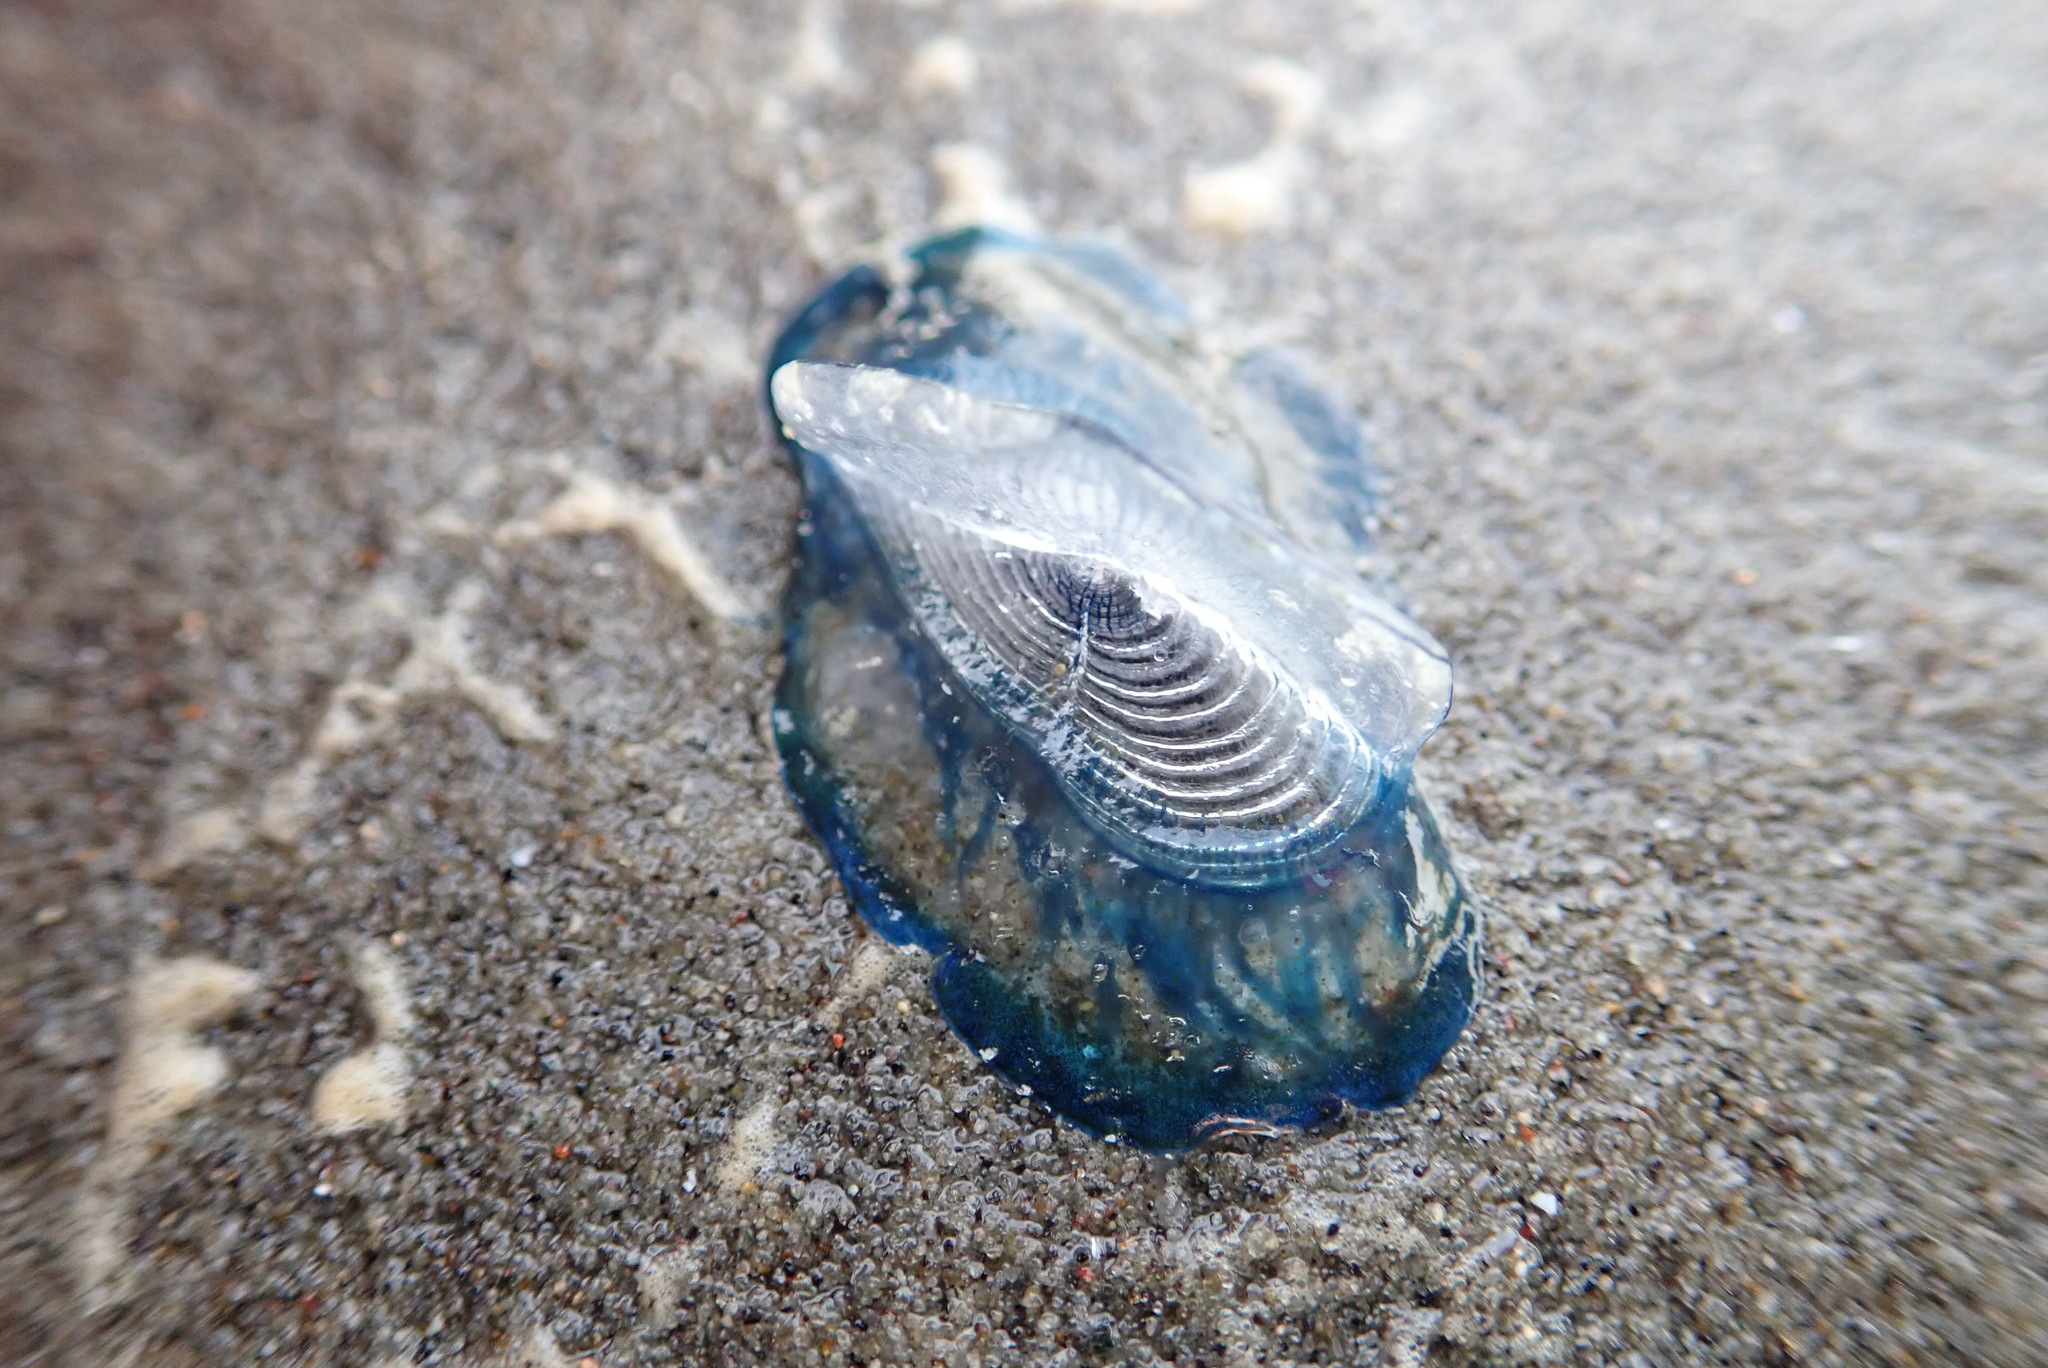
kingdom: Animalia
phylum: Cnidaria
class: Hydrozoa
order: Anthoathecata
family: Porpitidae
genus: Velella
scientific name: Velella velella
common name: By-the-wind-sailor
